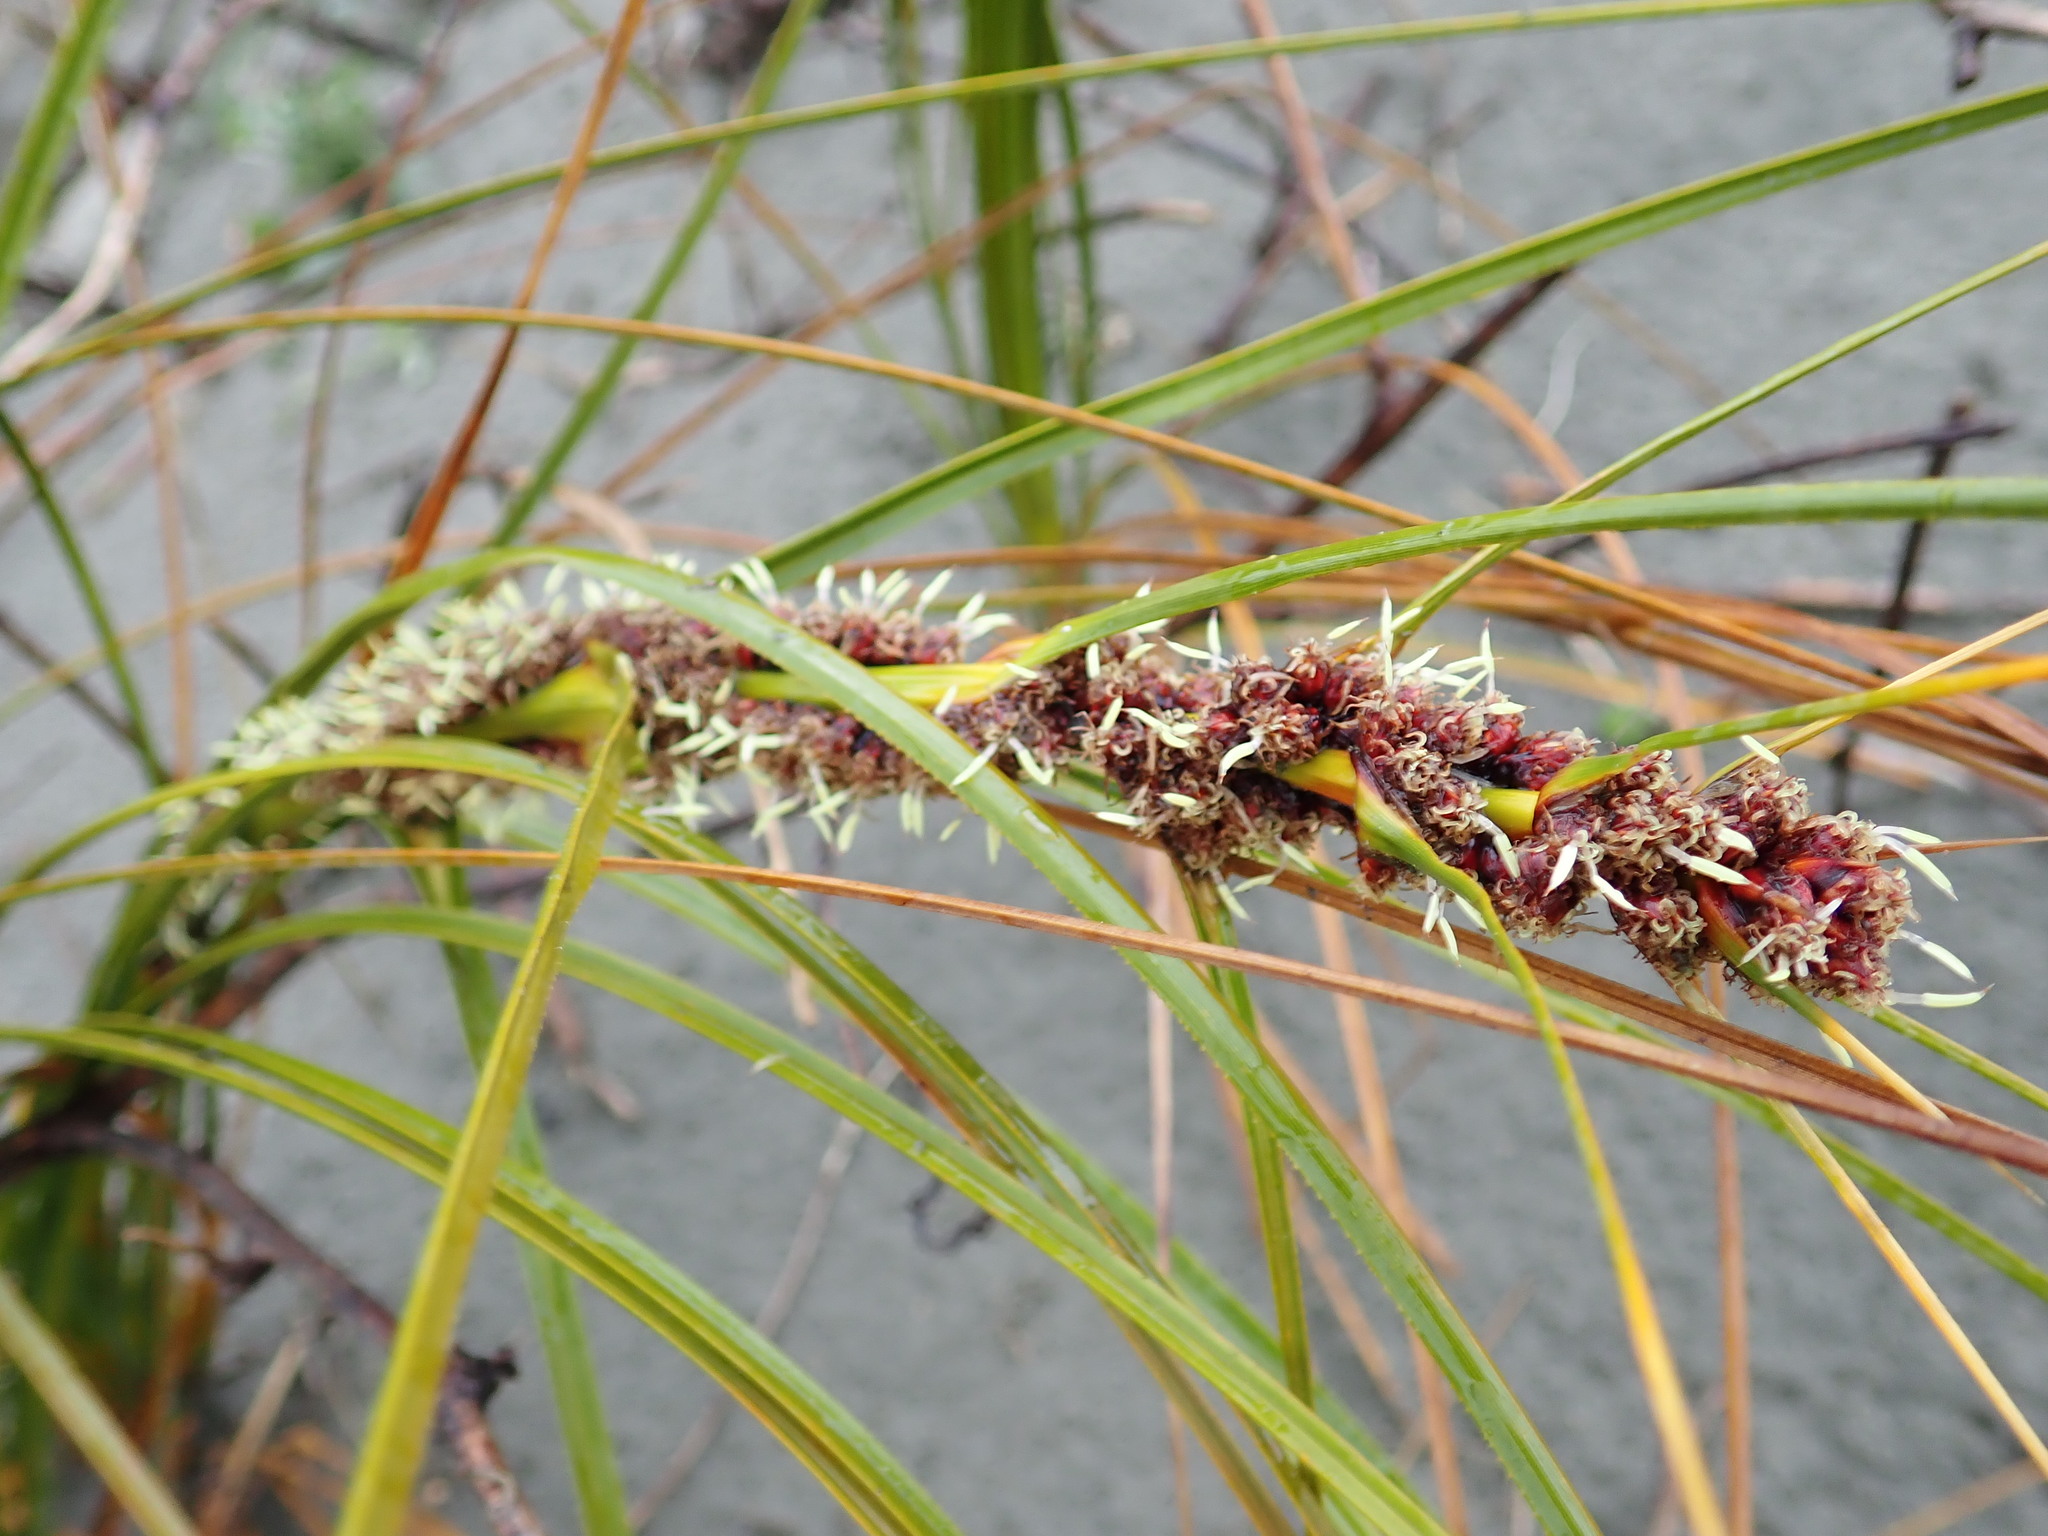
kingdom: Plantae
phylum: Tracheophyta
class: Liliopsida
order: Poales
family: Cyperaceae
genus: Ficinia
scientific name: Ficinia spiralis
